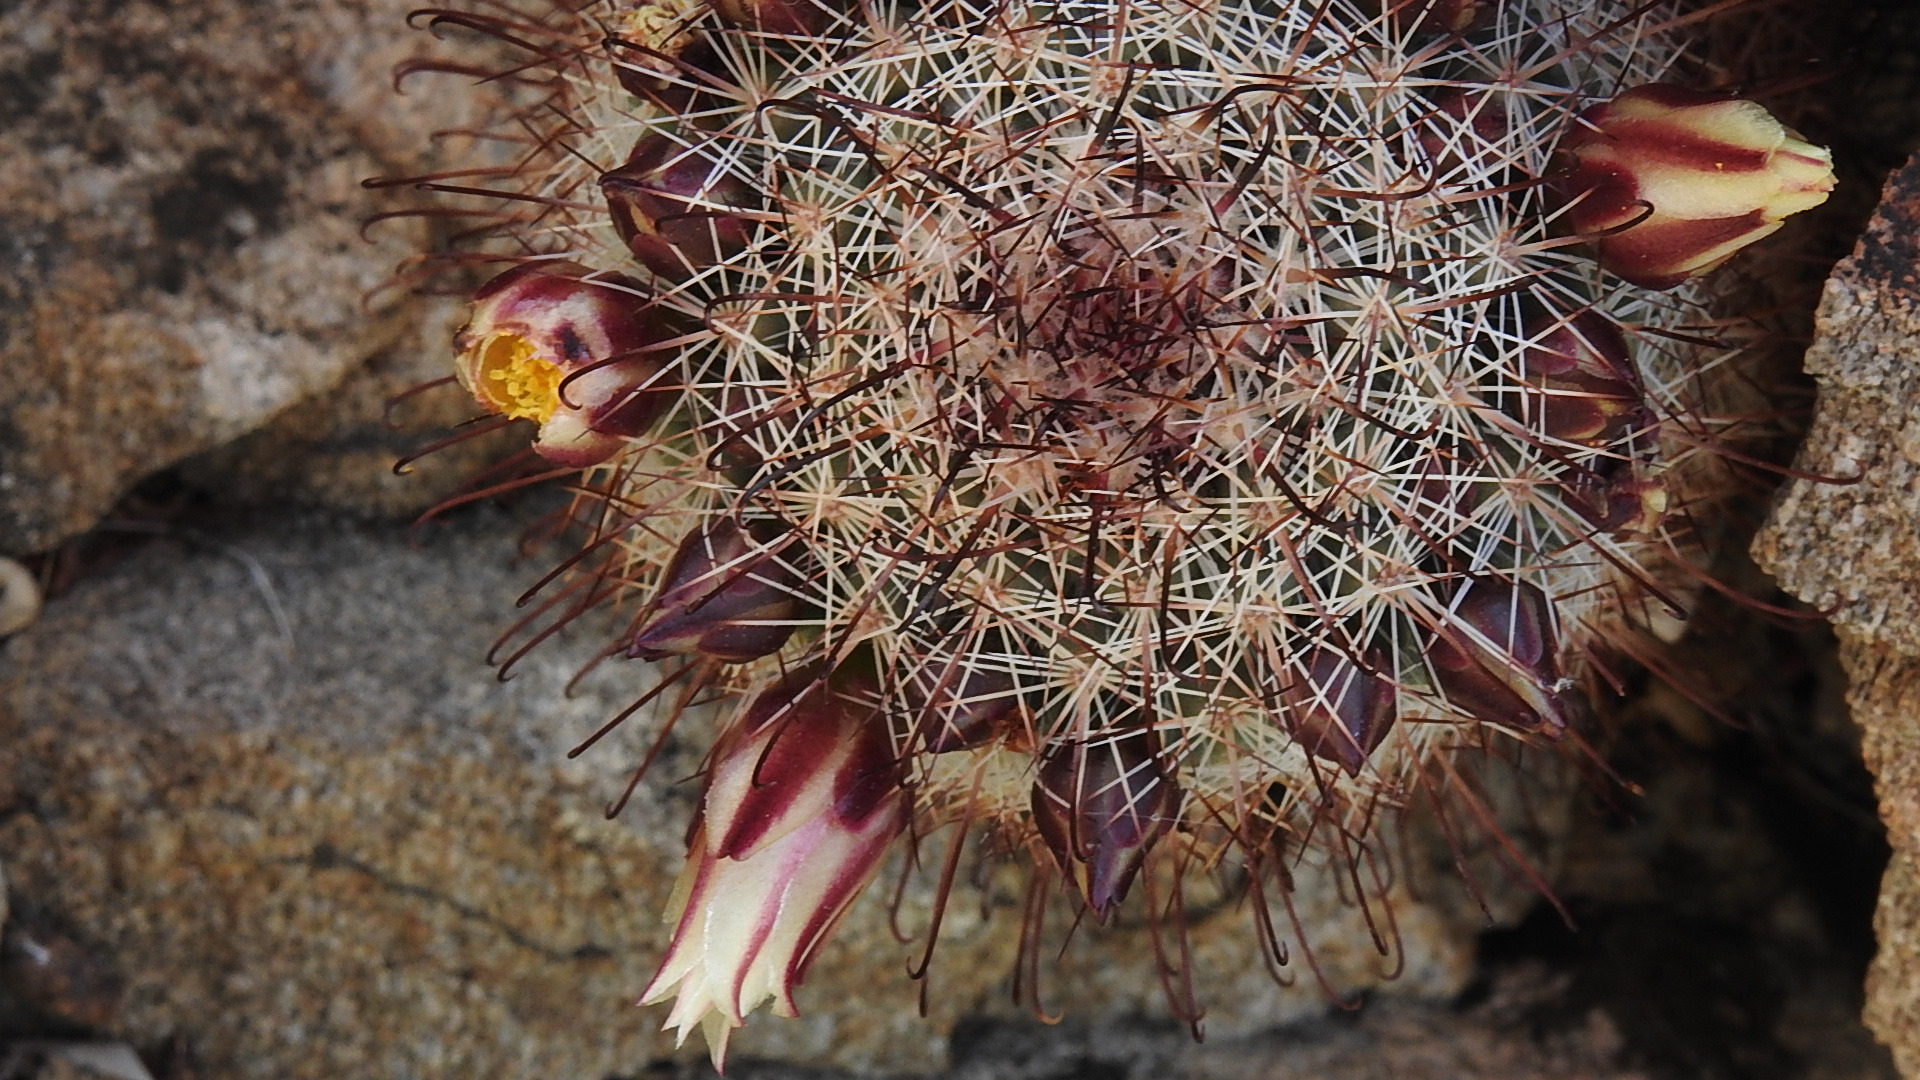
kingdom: Plantae
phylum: Tracheophyta
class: Magnoliopsida
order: Caryophyllales
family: Cactaceae
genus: Cochemiea
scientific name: Cochemiea dioica
